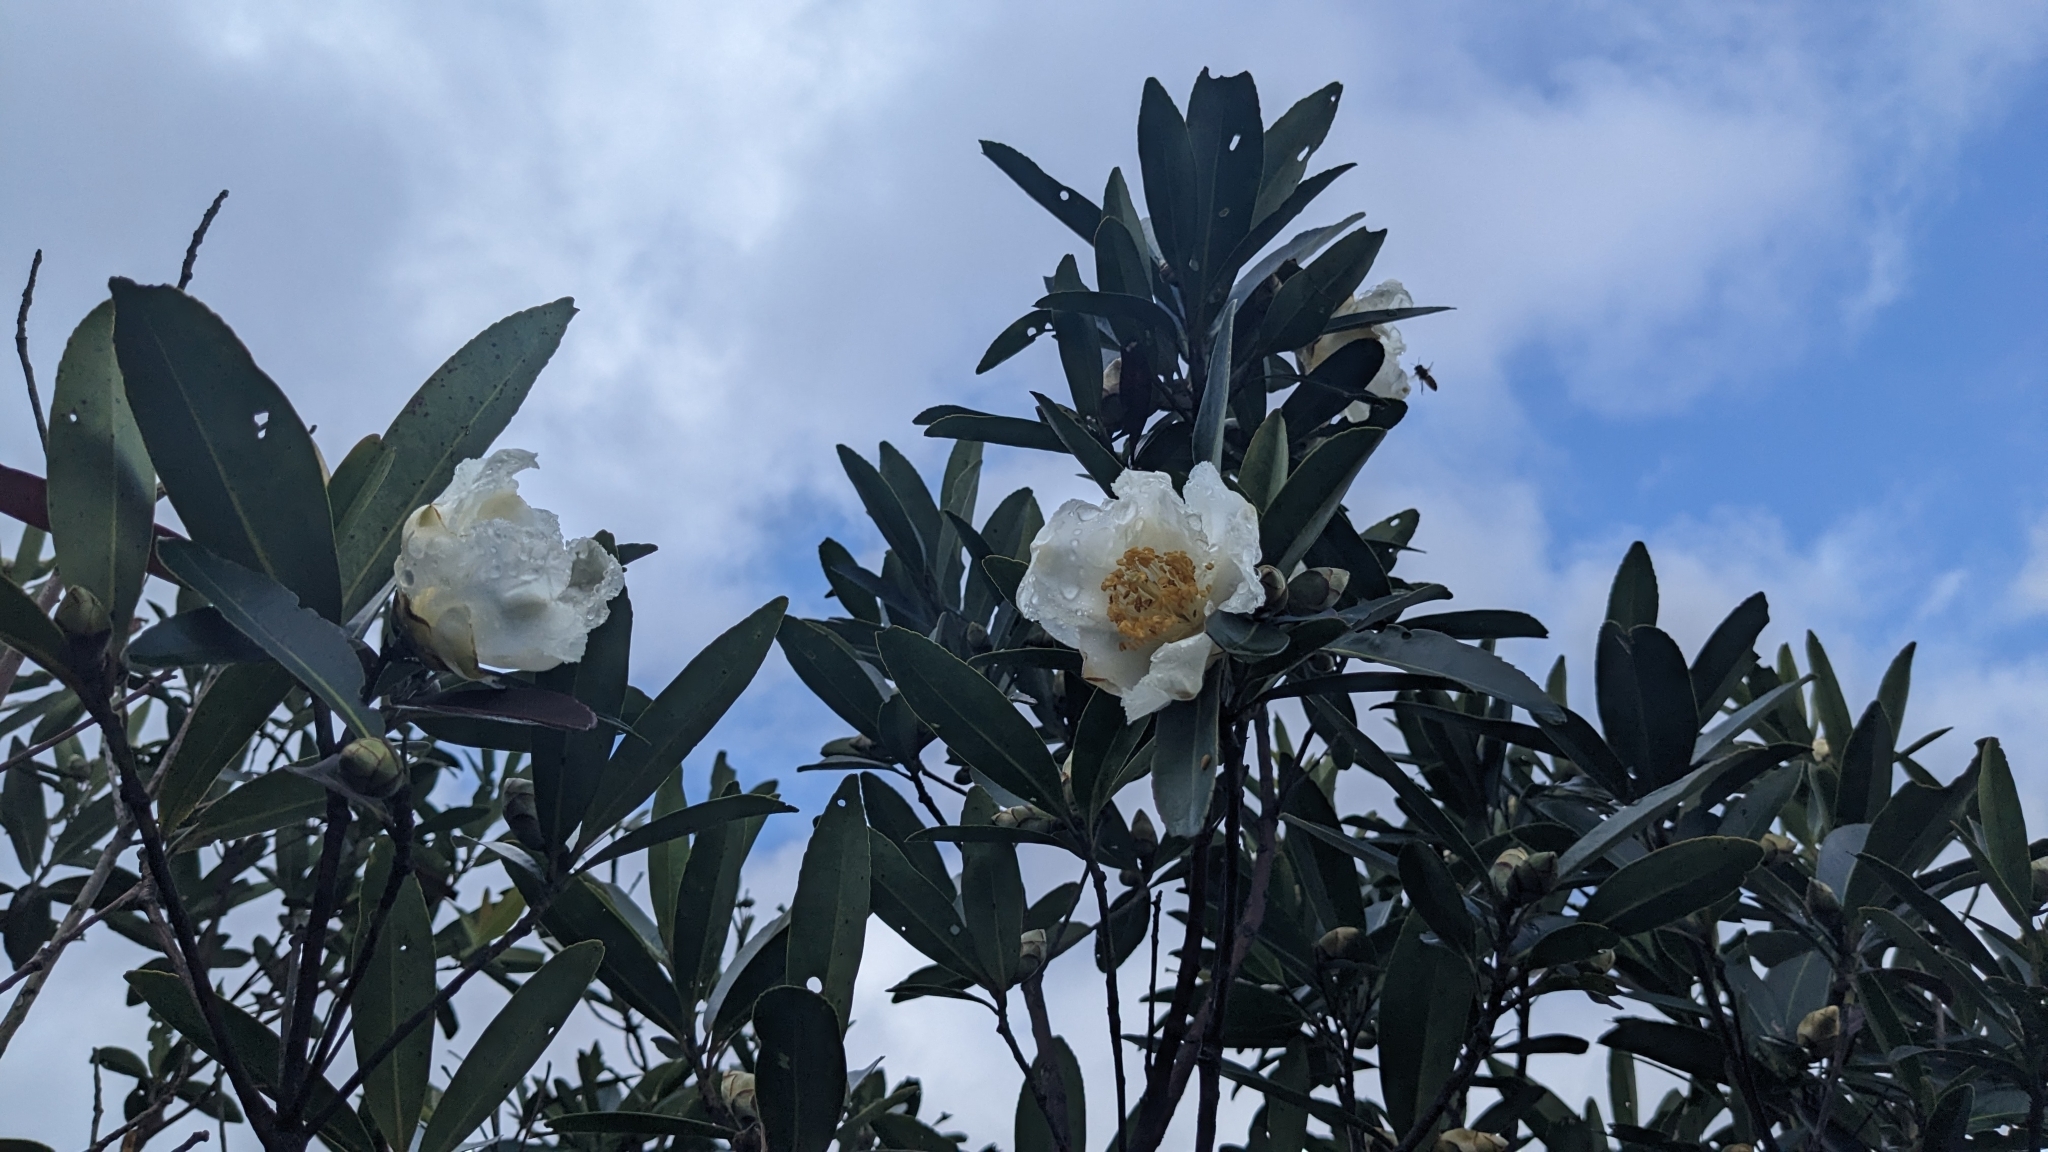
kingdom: Plantae
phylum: Tracheophyta
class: Magnoliopsida
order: Ericales
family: Theaceae
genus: Polyspora
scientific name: Polyspora axillaris
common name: Fried egg tree
